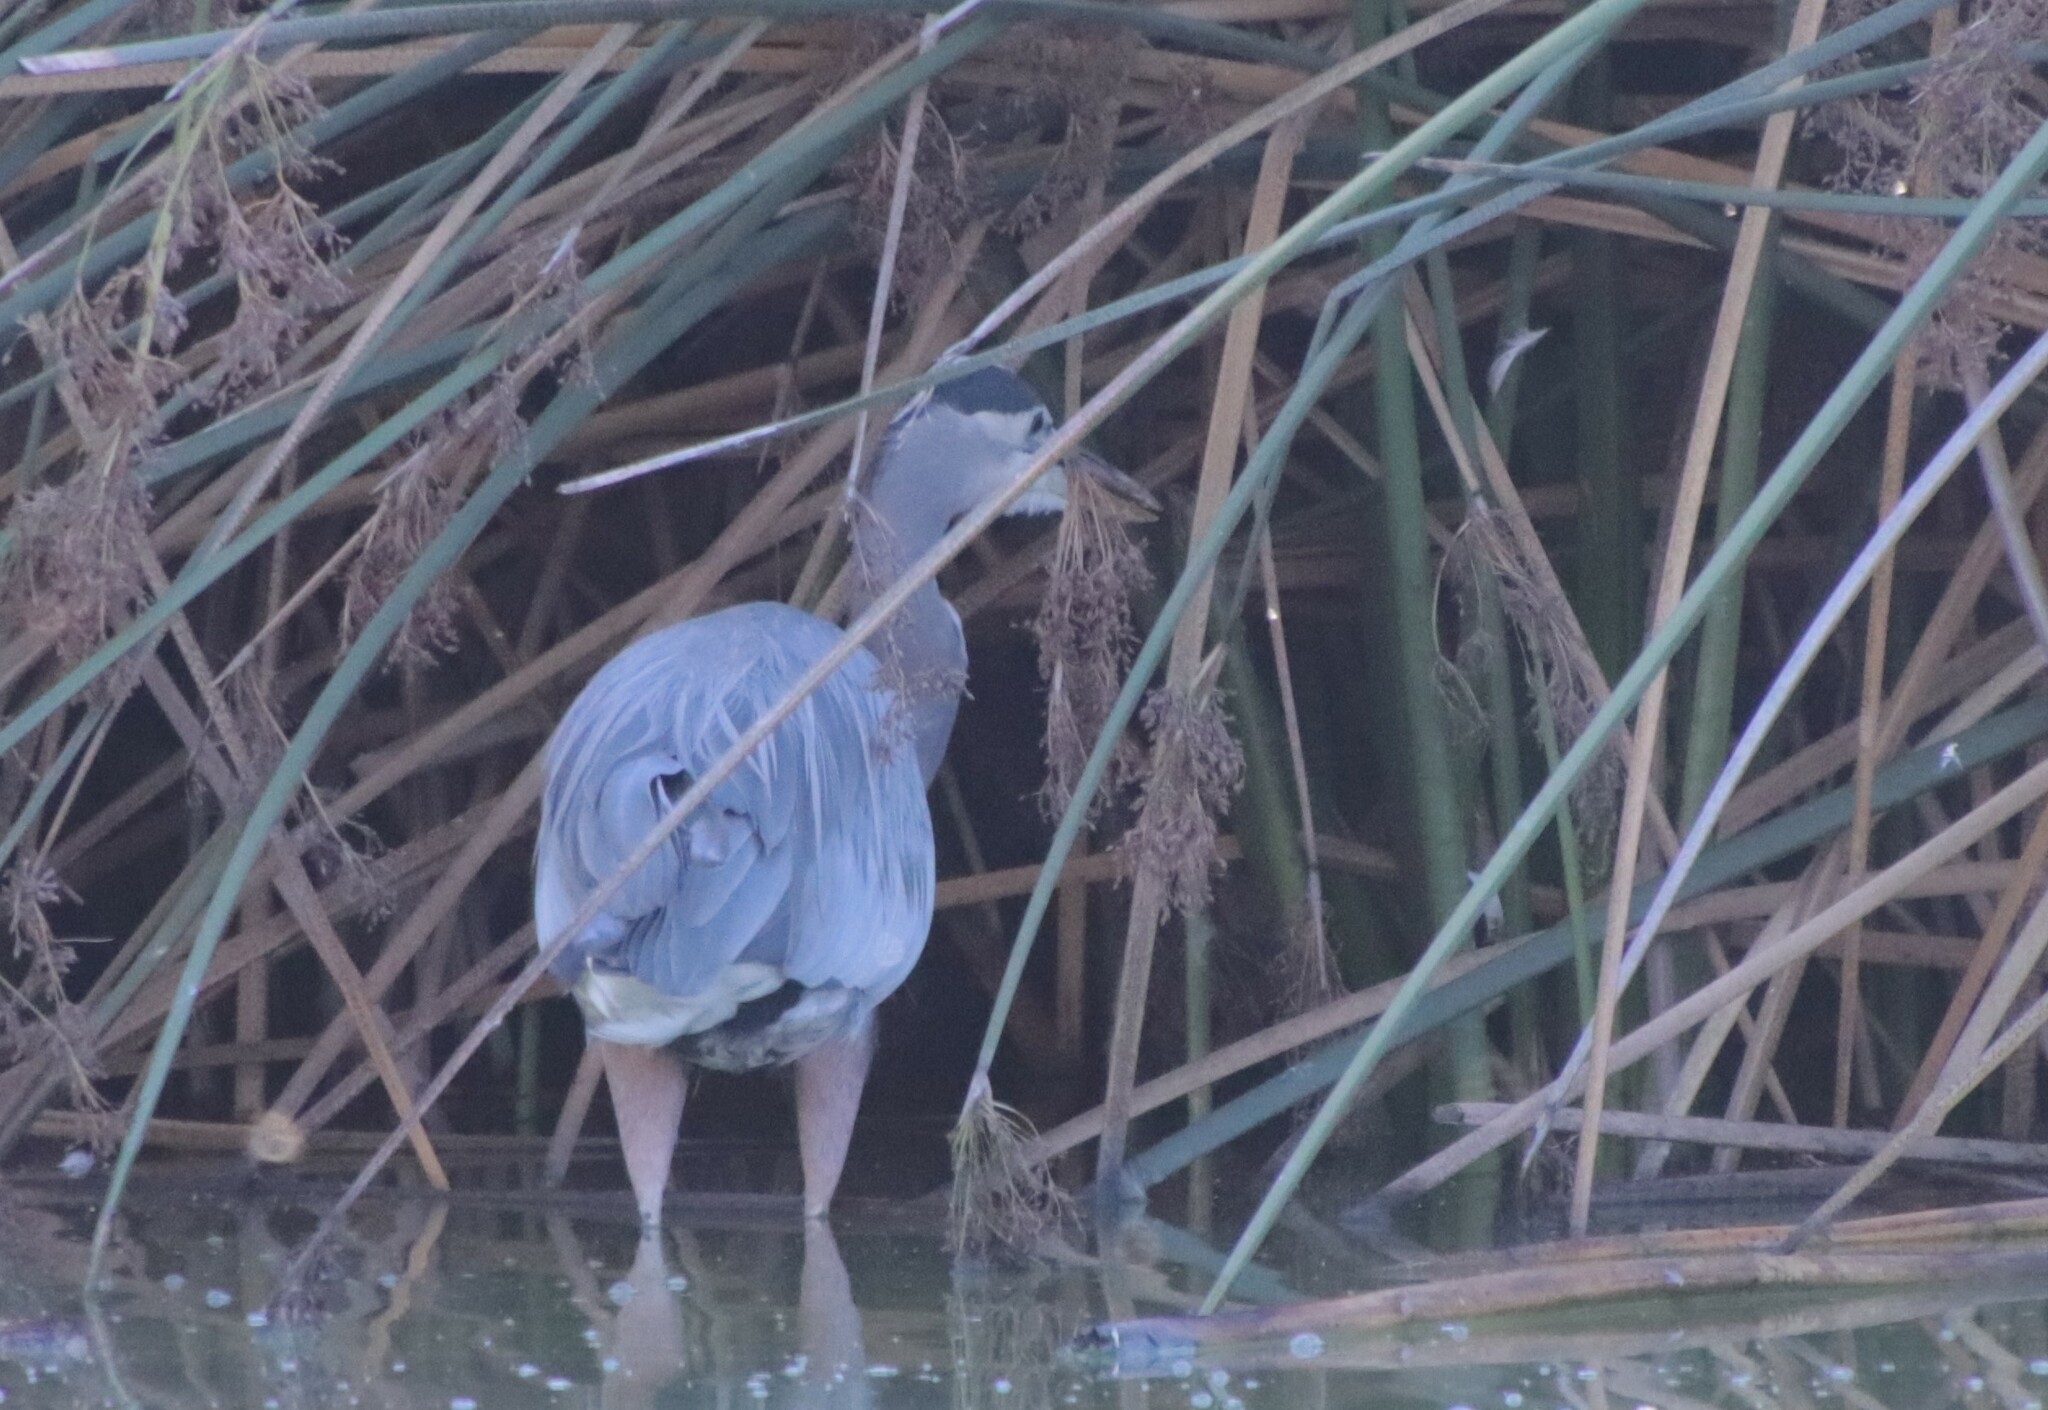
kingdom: Animalia
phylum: Chordata
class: Aves
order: Pelecaniformes
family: Ardeidae
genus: Ardea
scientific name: Ardea herodias
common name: Great blue heron
